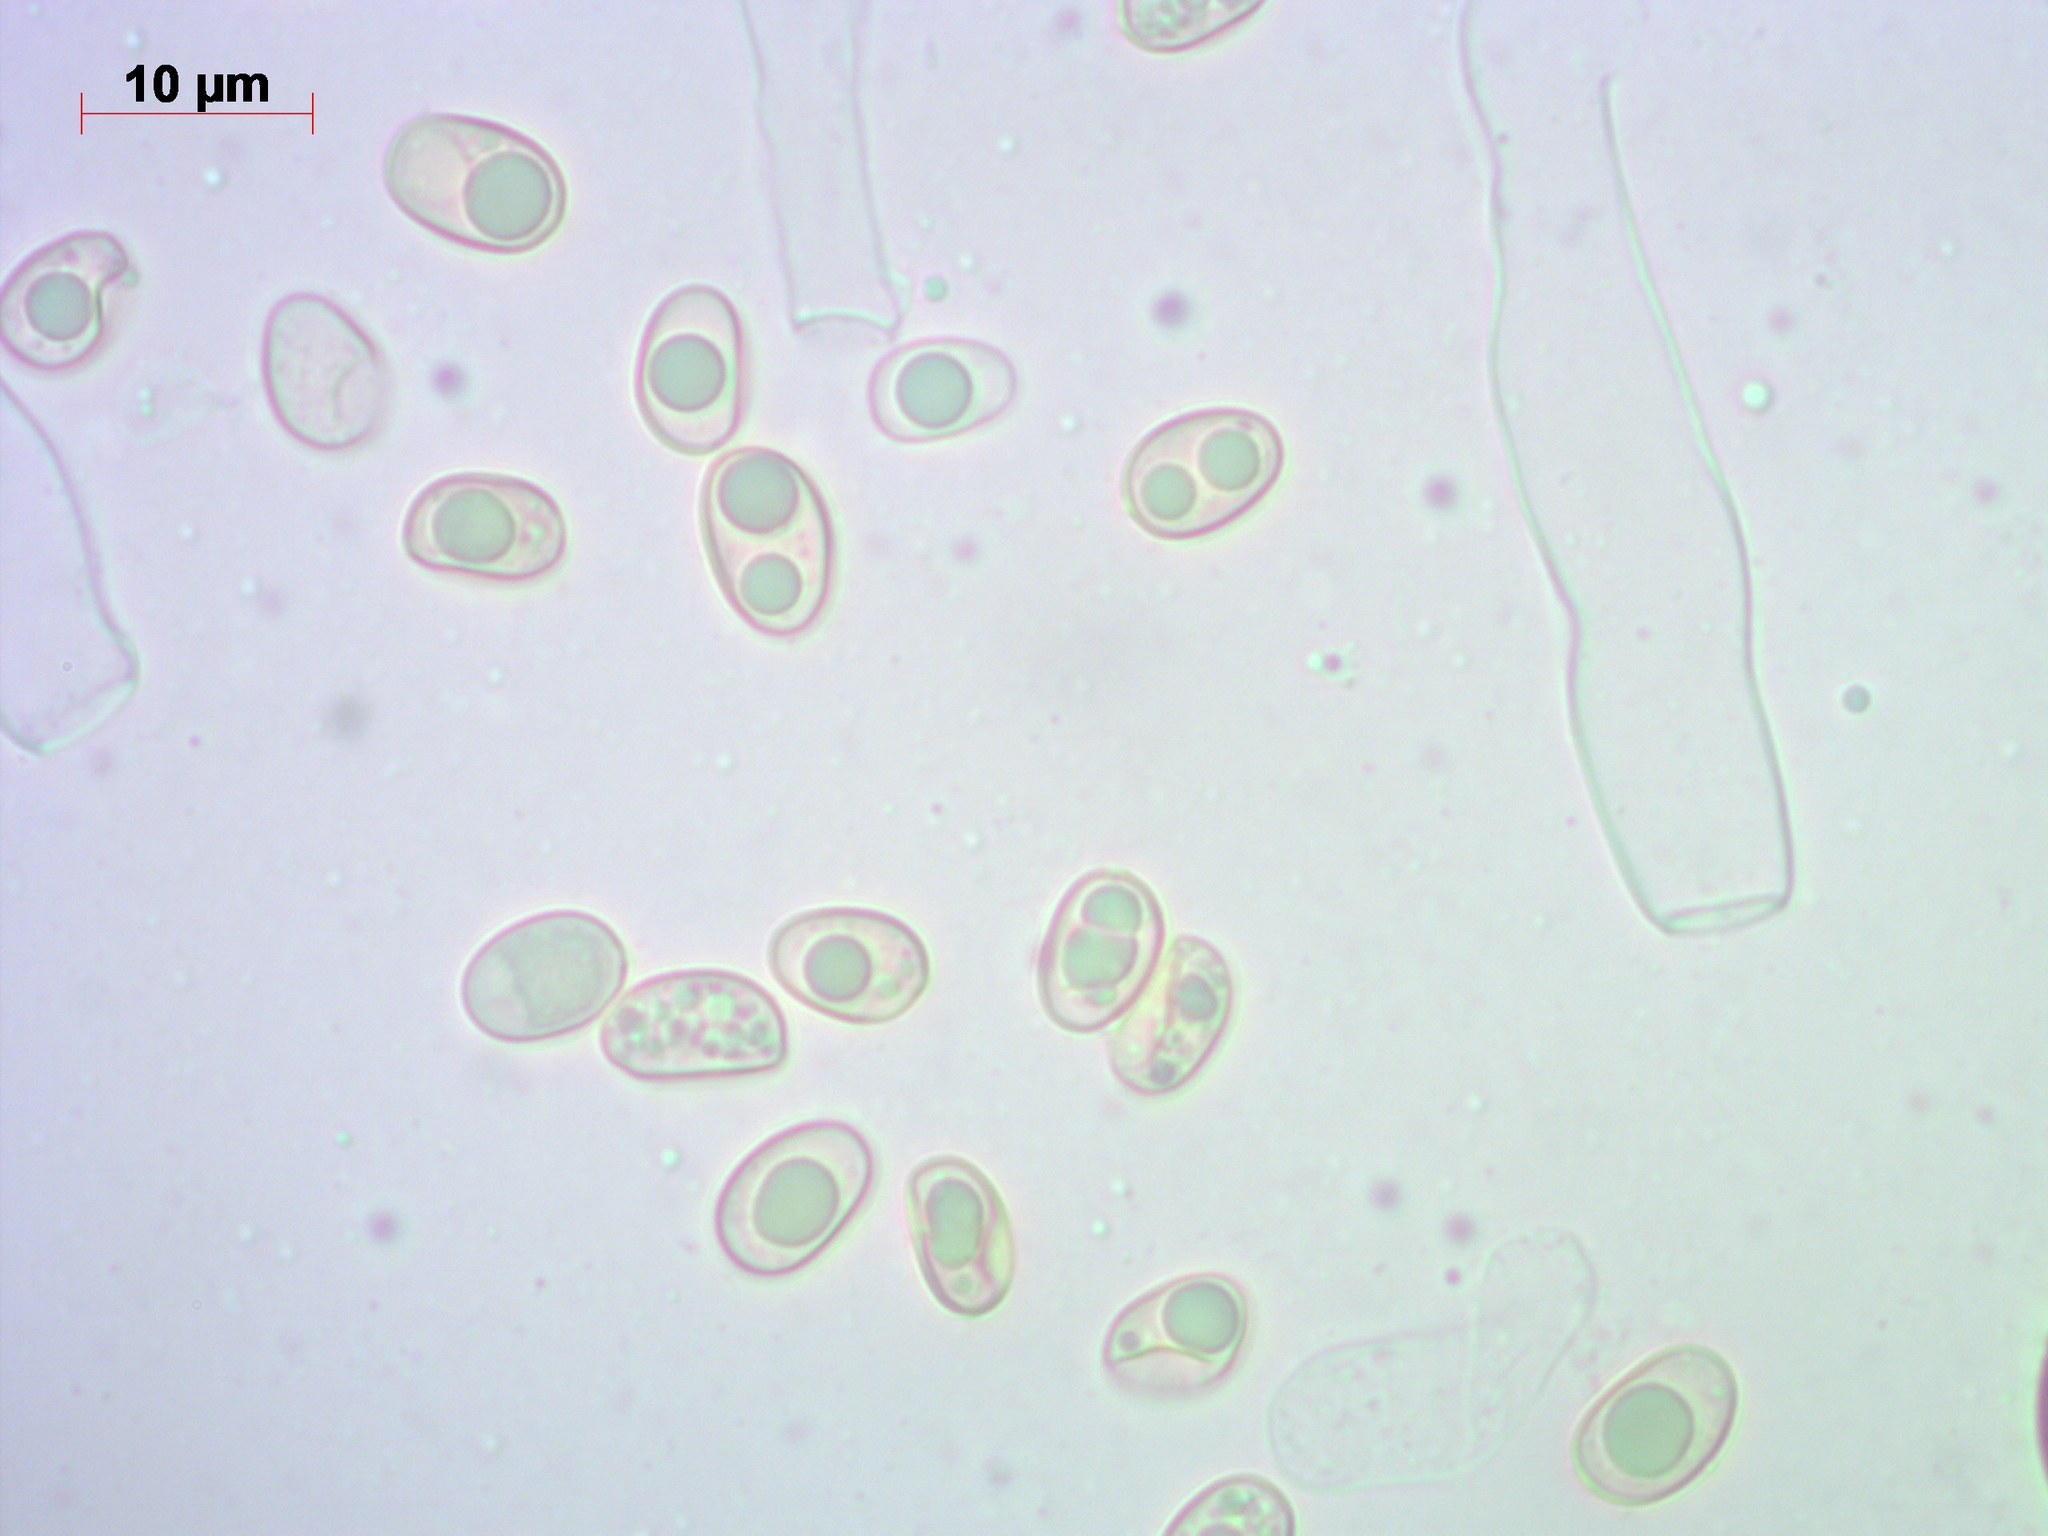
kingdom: Fungi
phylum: Basidiomycota
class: Agaricomycetes
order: Agaricales
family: Tubariaceae
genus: Tubaria
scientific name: Tubaria furfuracea
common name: Scurfy twiglet
